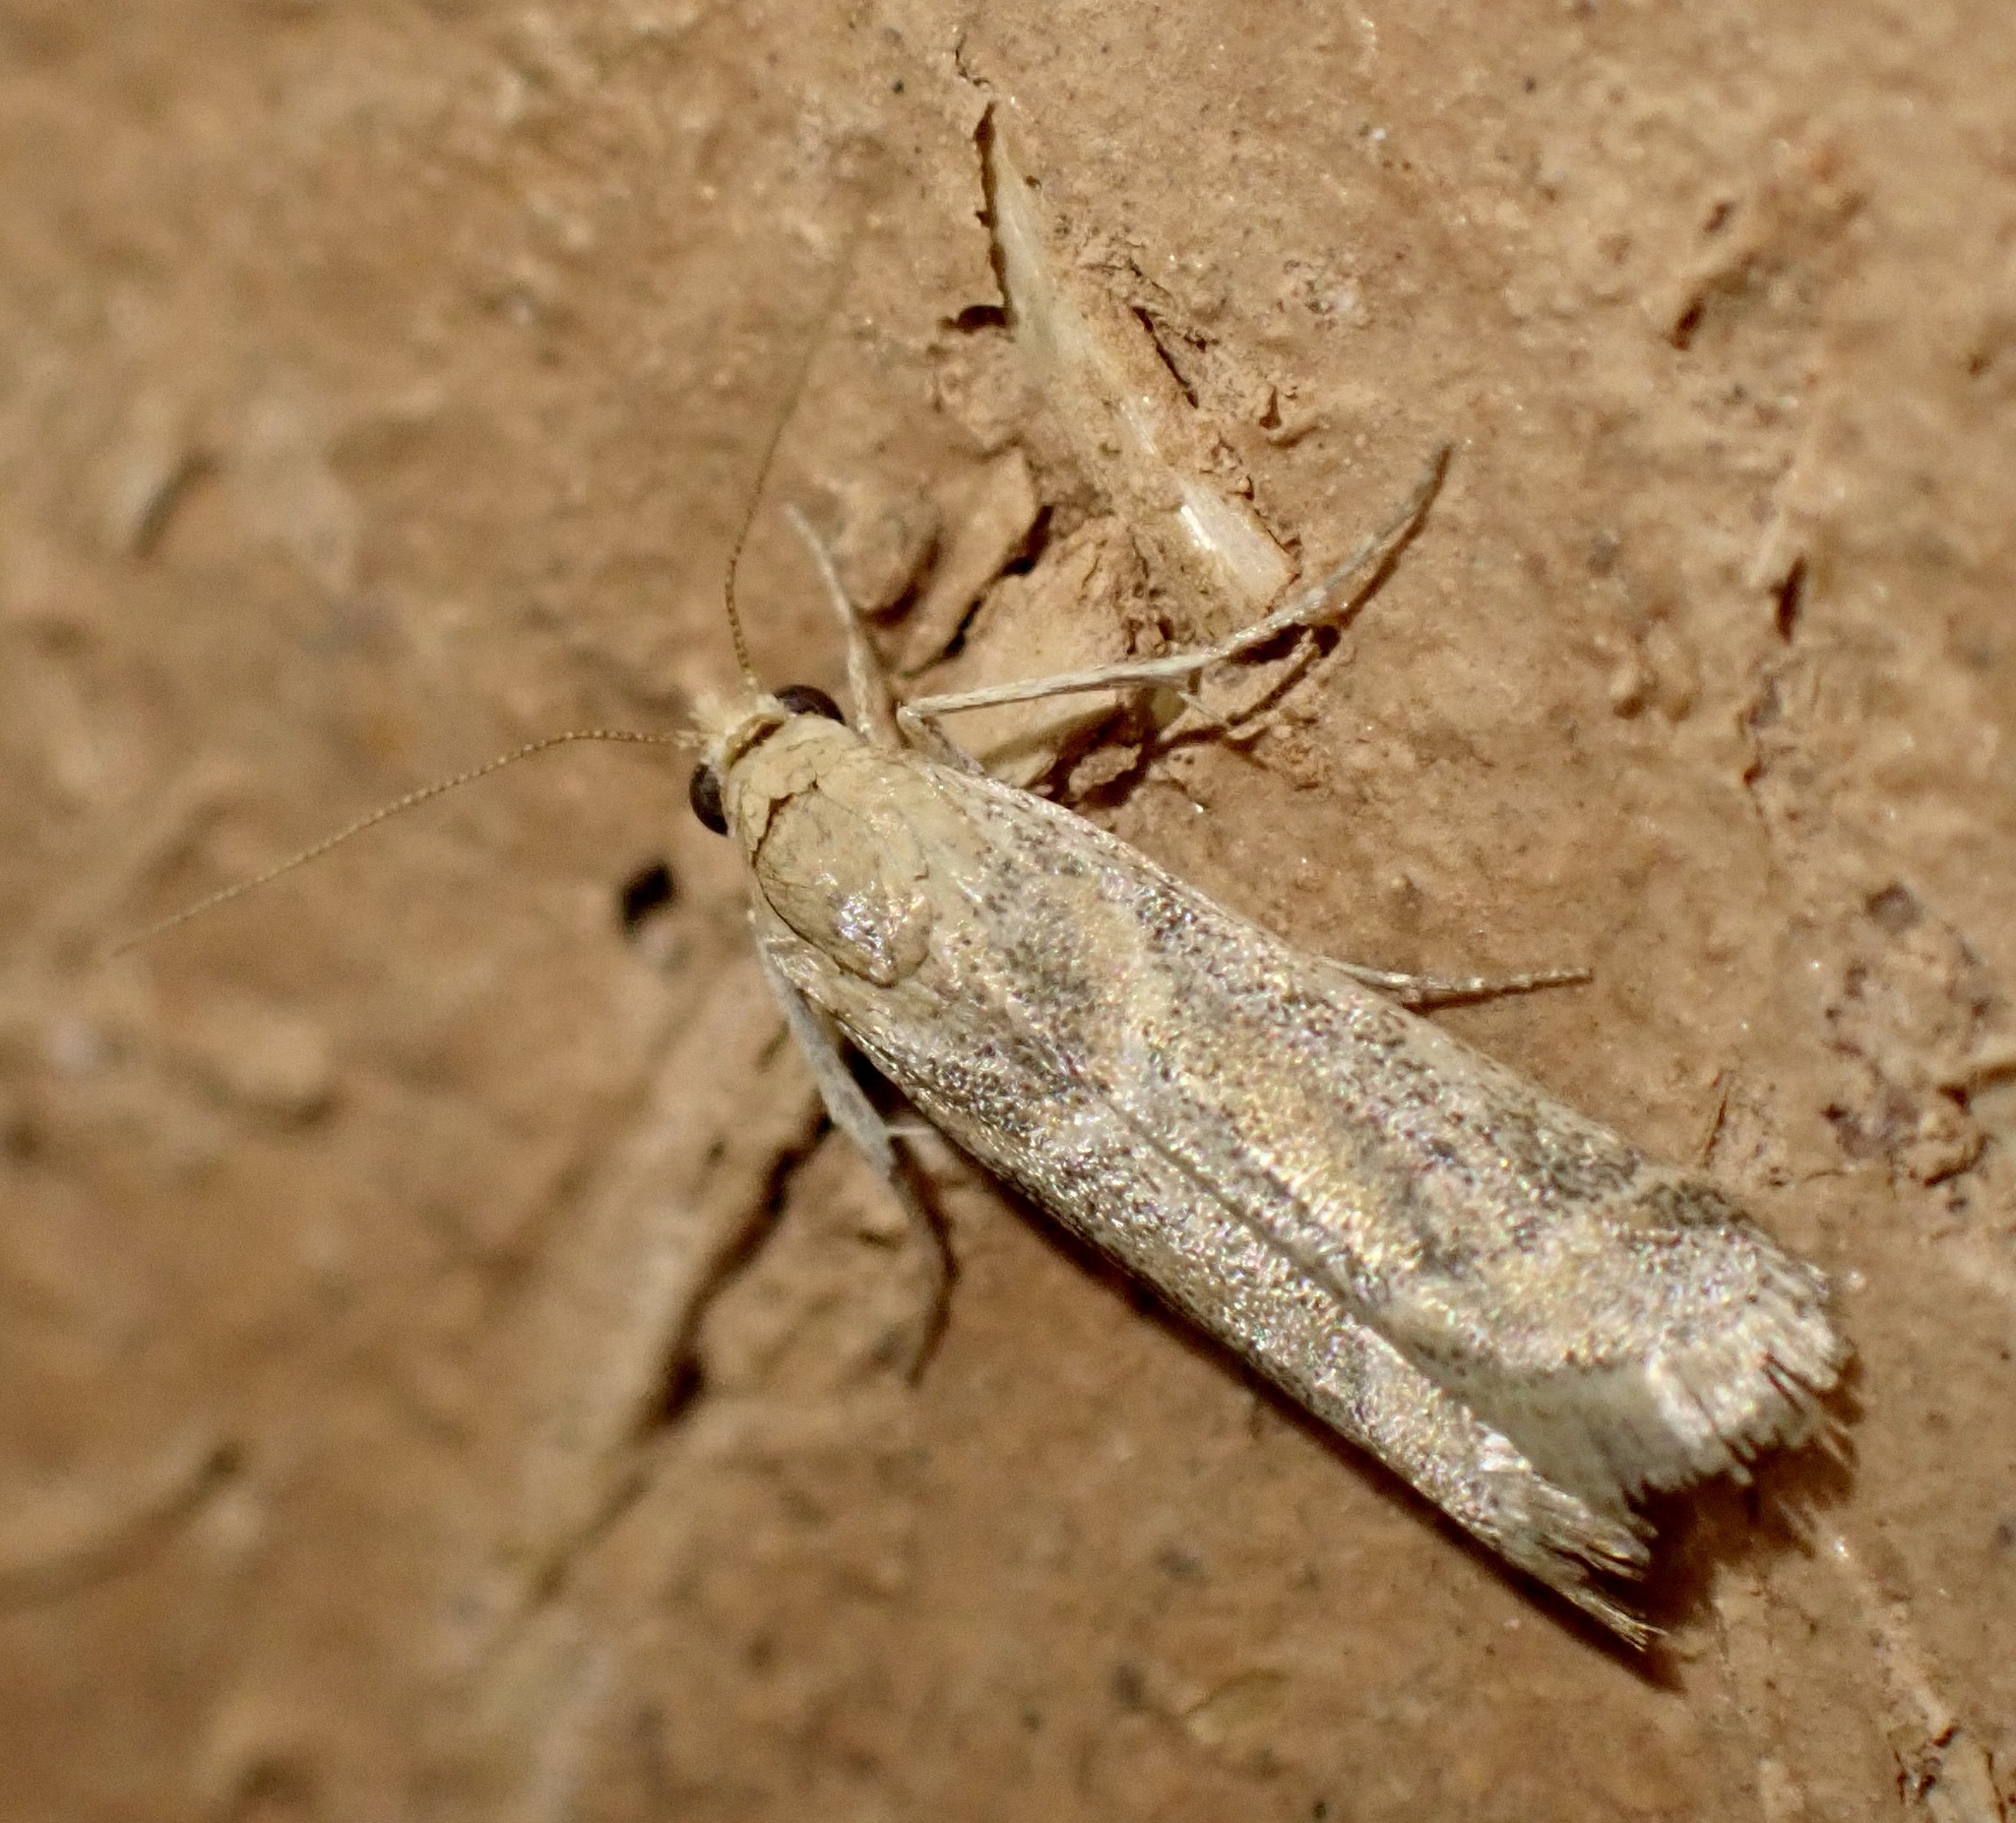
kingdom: Animalia
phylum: Arthropoda
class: Insecta
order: Lepidoptera
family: Pyralidae
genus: Ancylosis
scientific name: Ancylosis samaritanella
